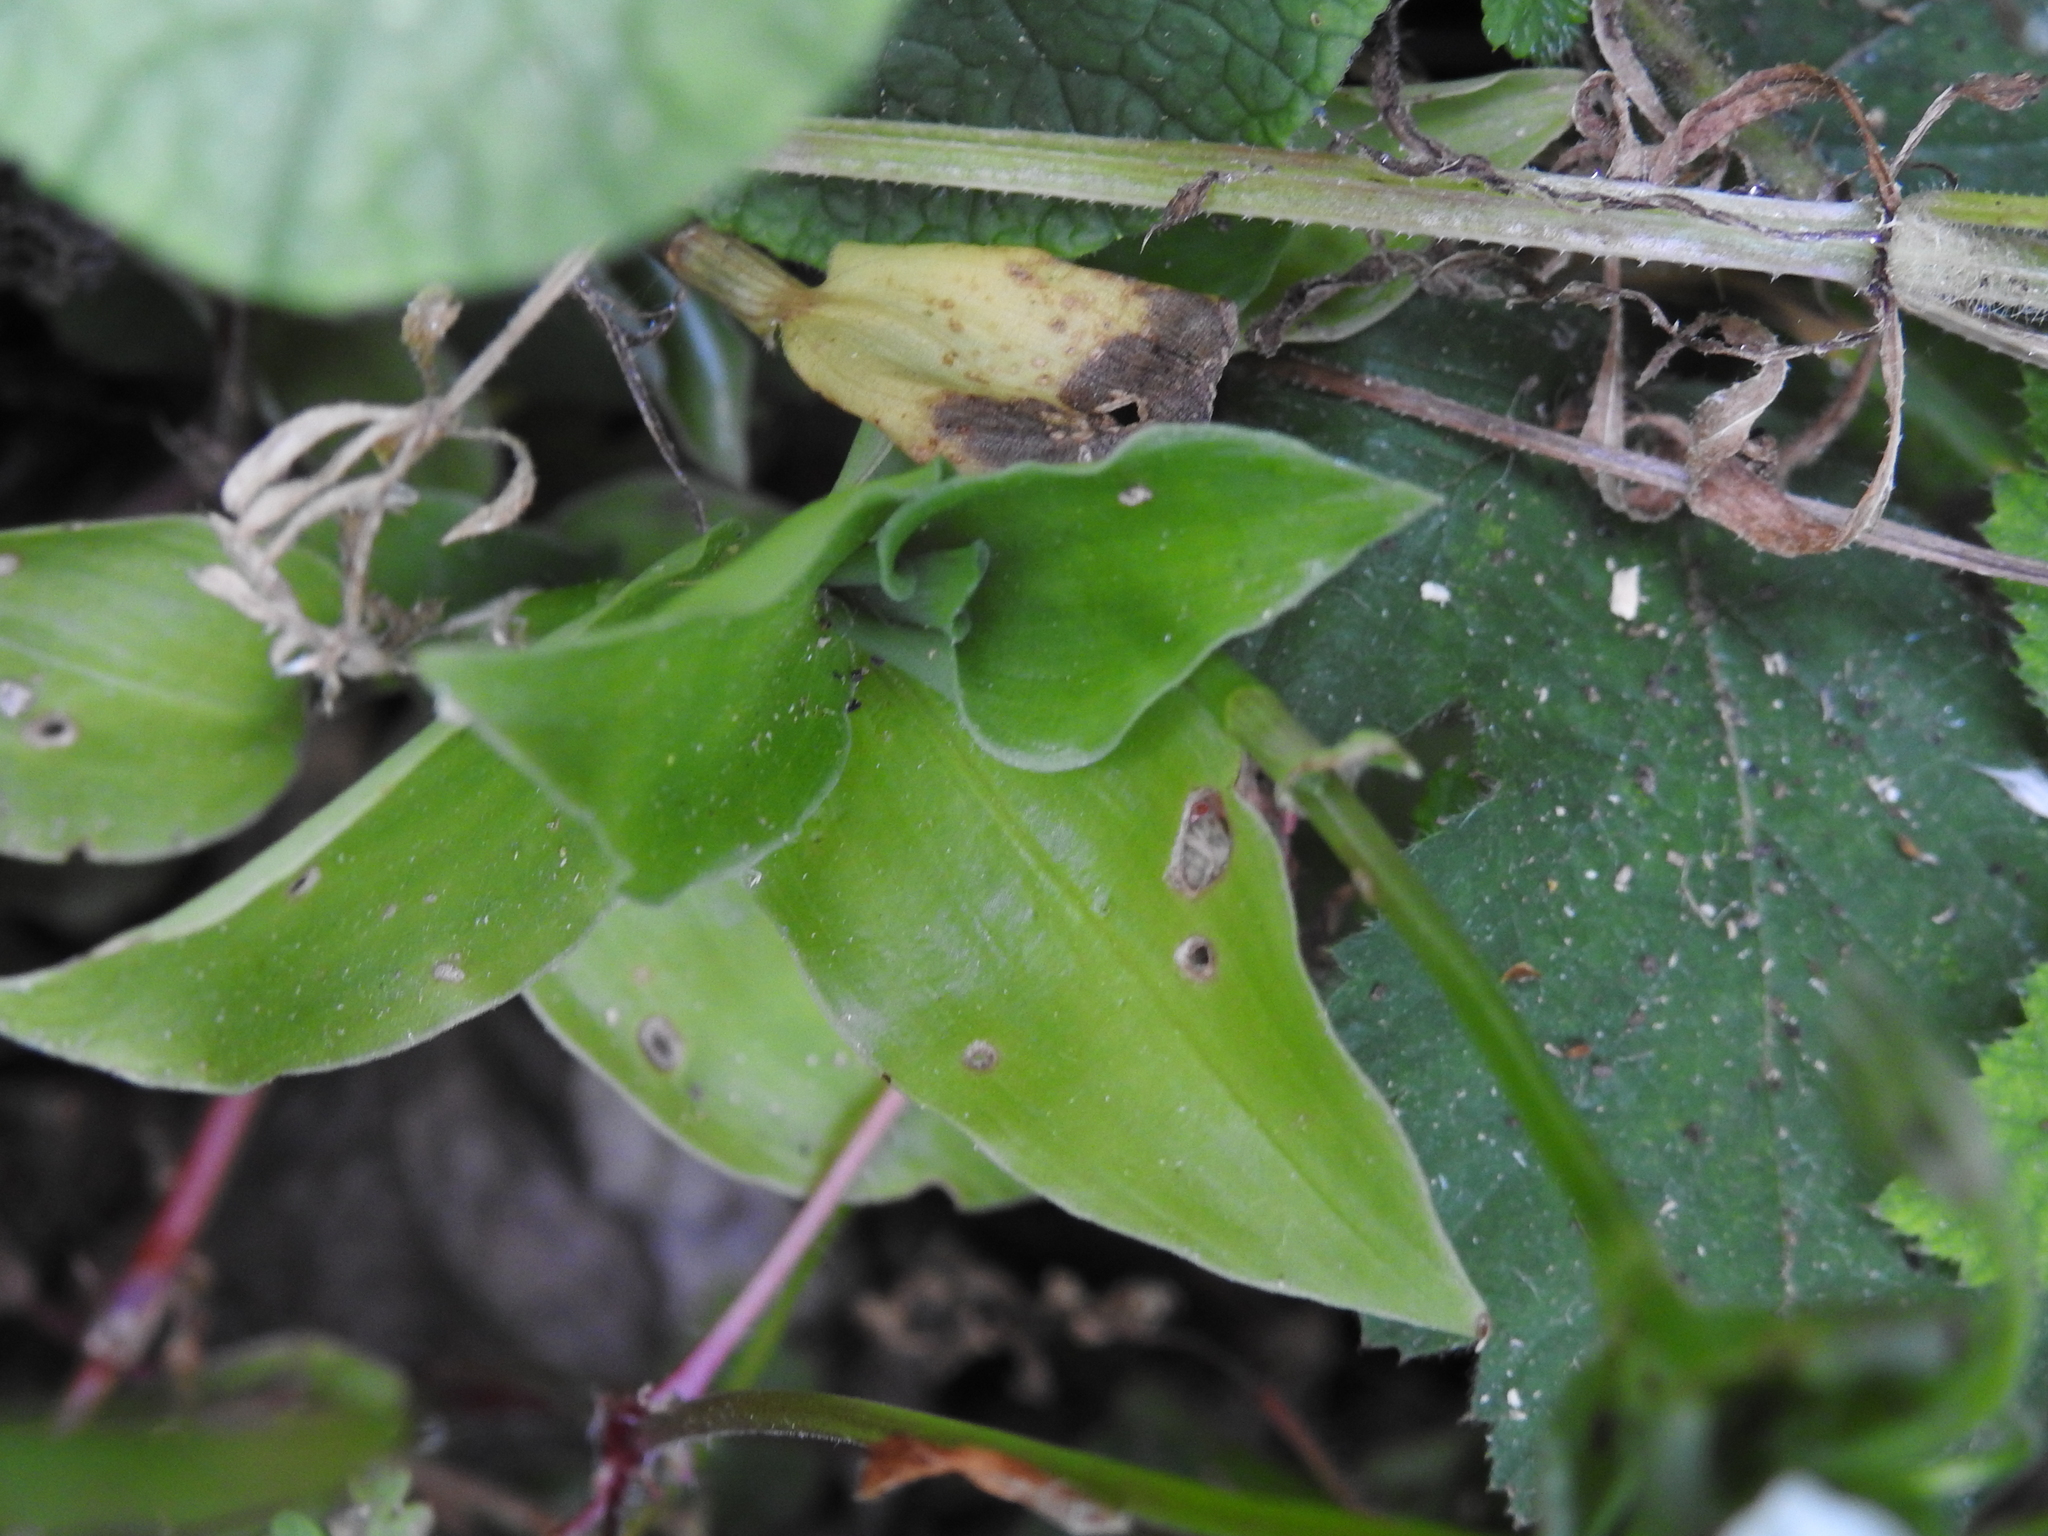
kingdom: Plantae
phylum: Tracheophyta
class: Liliopsida
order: Commelinales
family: Commelinaceae
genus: Tradescantia
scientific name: Tradescantia fluminensis
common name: Wandering-jew
